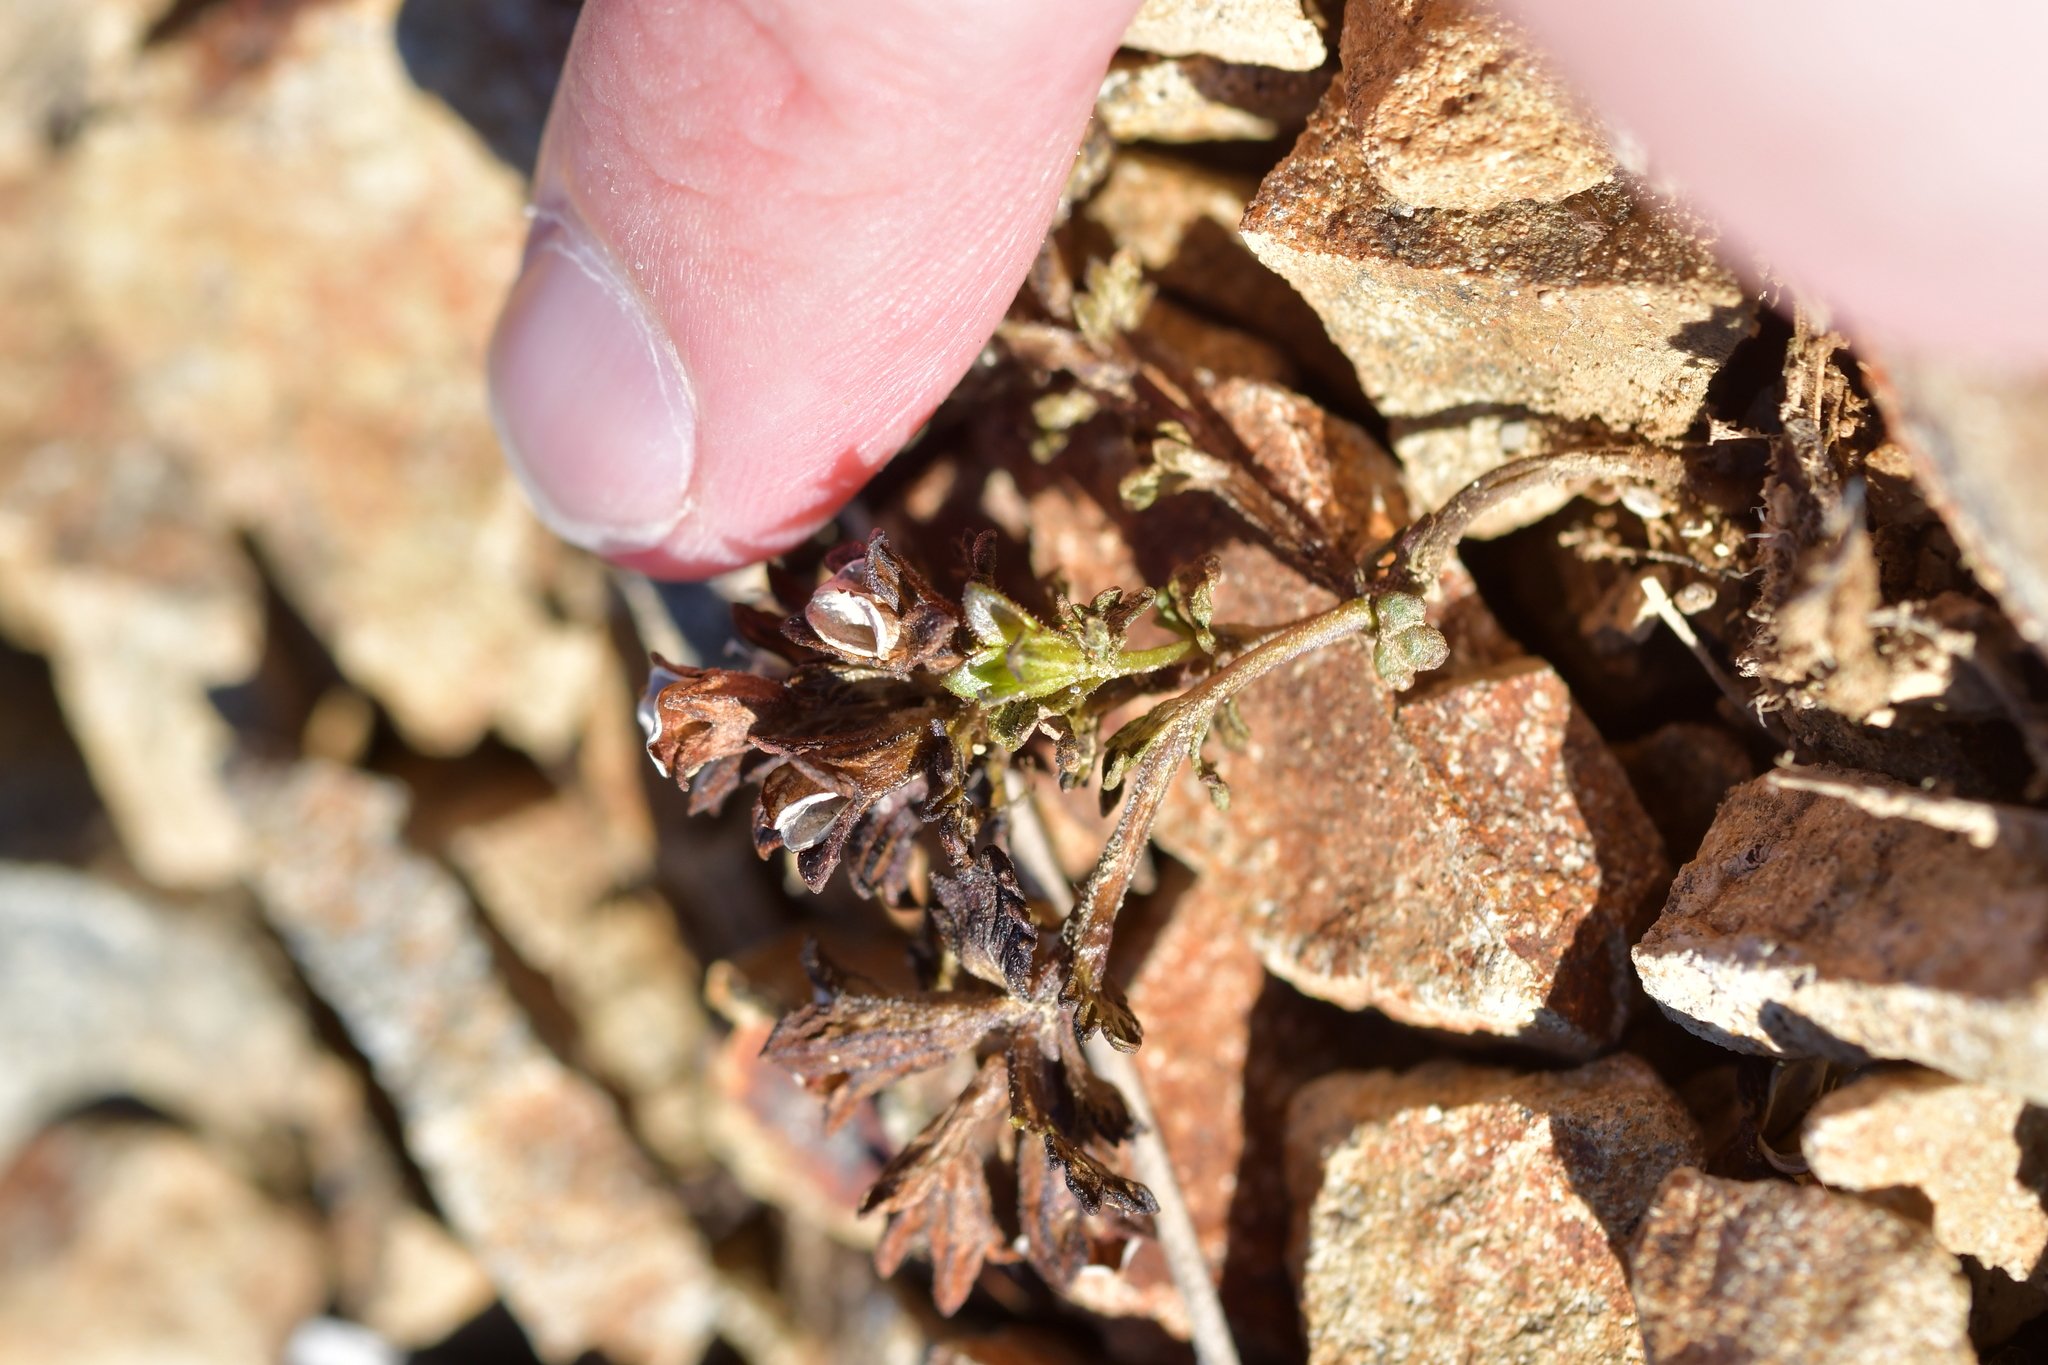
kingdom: Plantae
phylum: Tracheophyta
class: Magnoliopsida
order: Lamiales
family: Plantaginaceae
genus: Veronica
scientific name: Veronica spathulata
